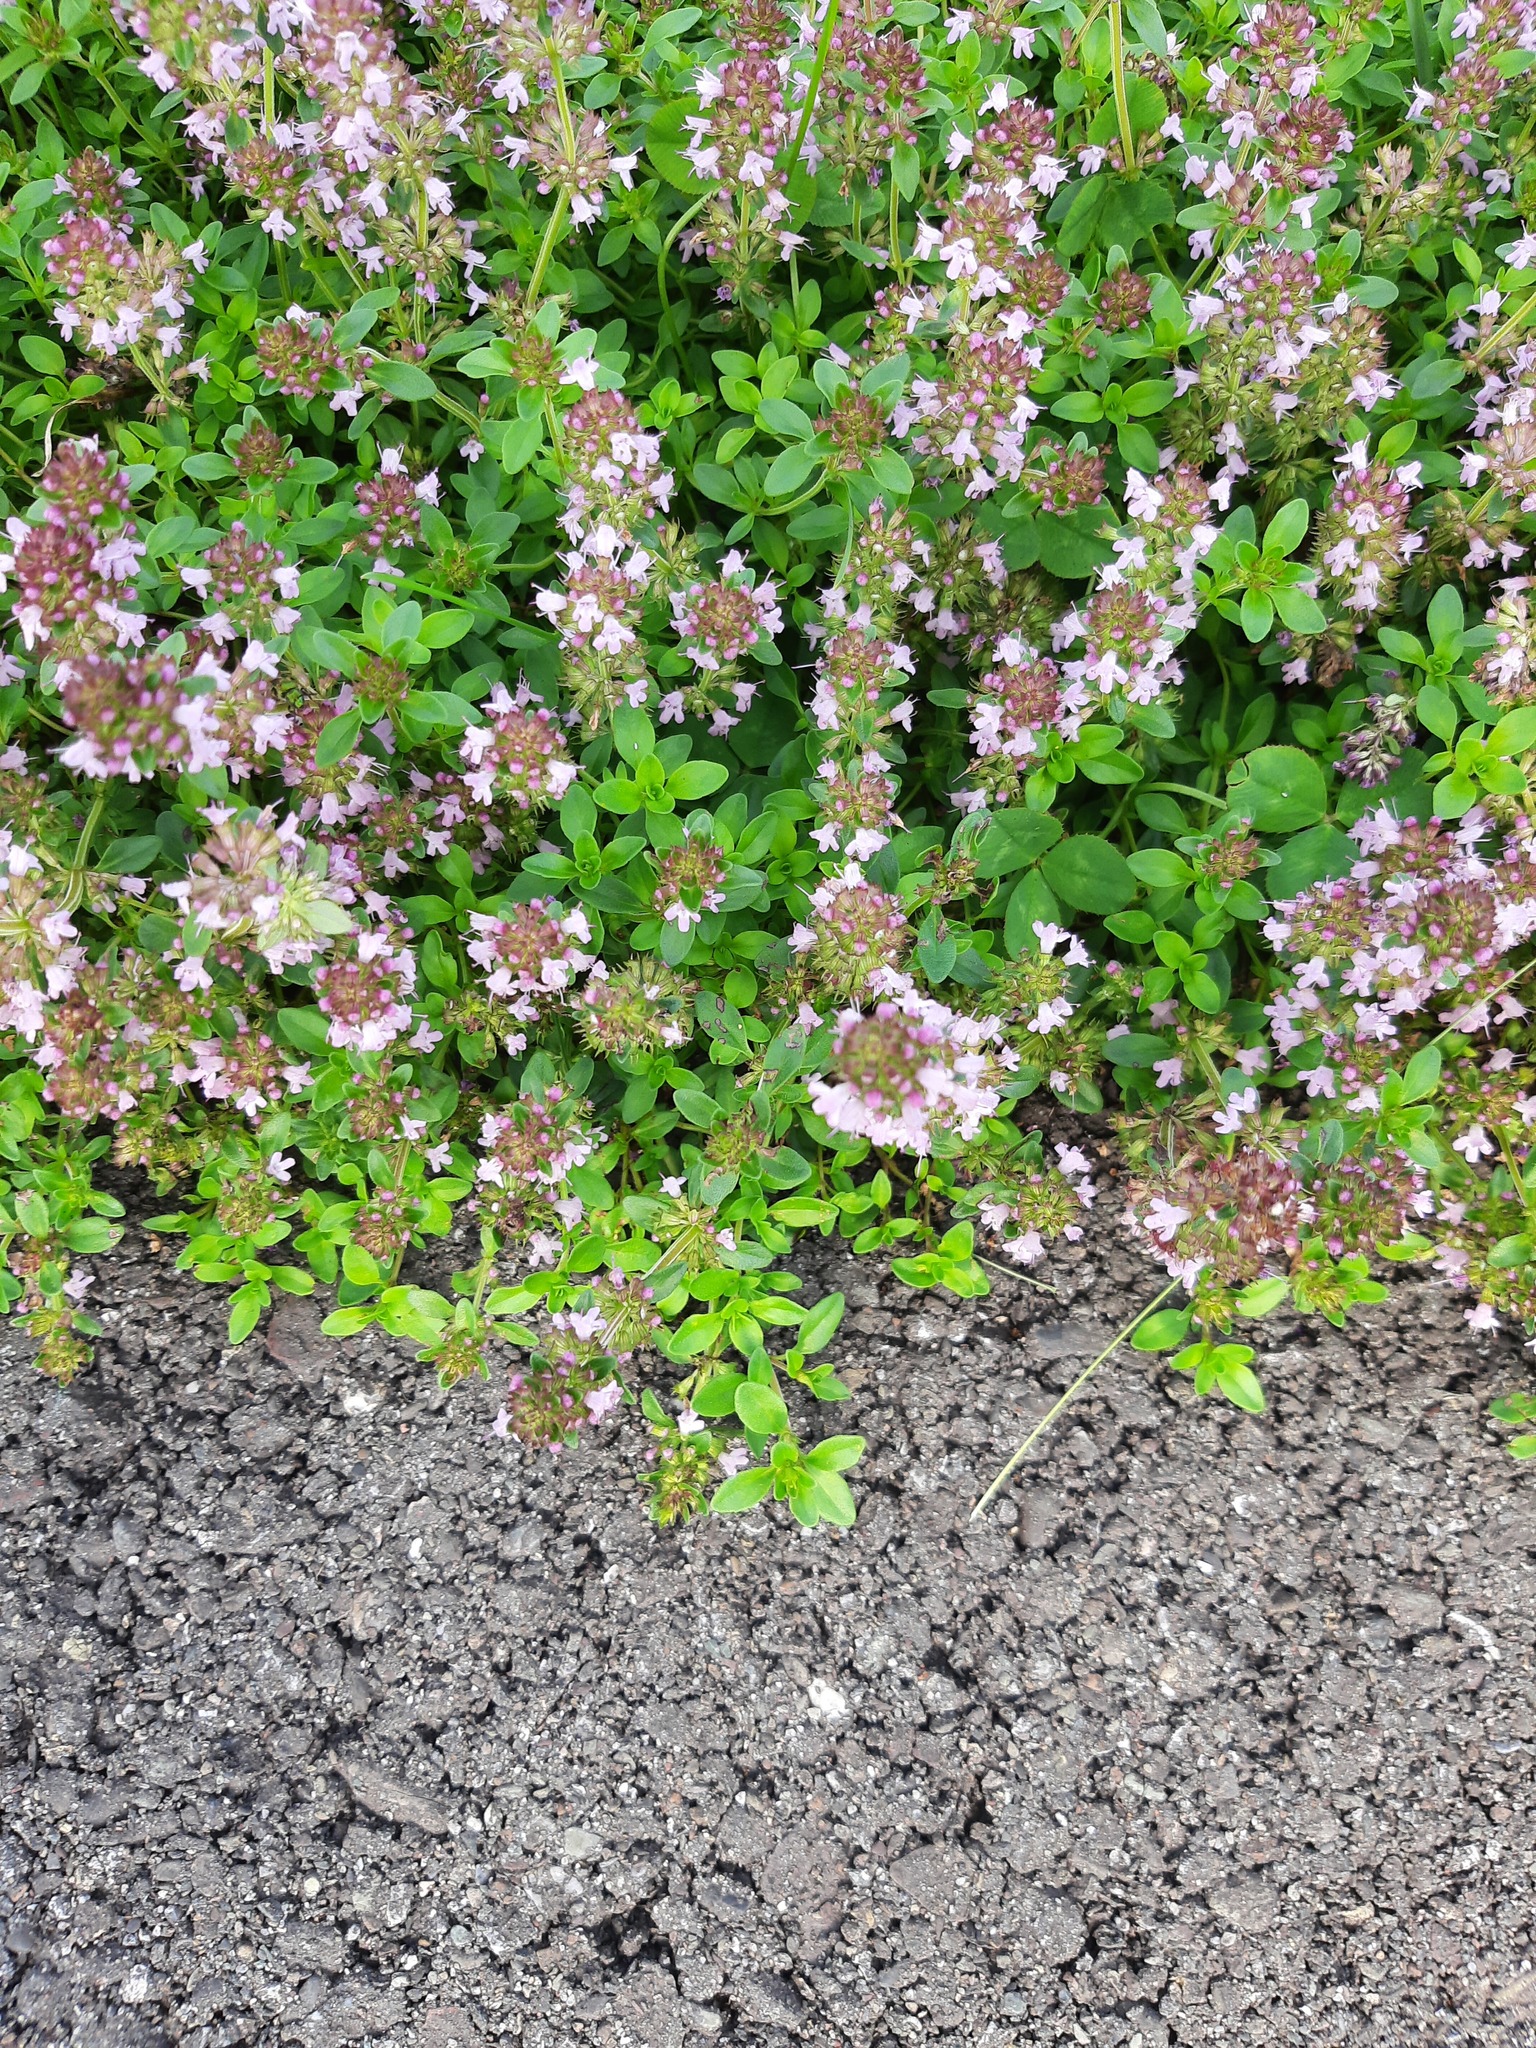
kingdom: Plantae
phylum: Tracheophyta
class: Magnoliopsida
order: Lamiales
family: Lamiaceae
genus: Thymus
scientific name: Thymus pulegioides
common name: Large thyme
